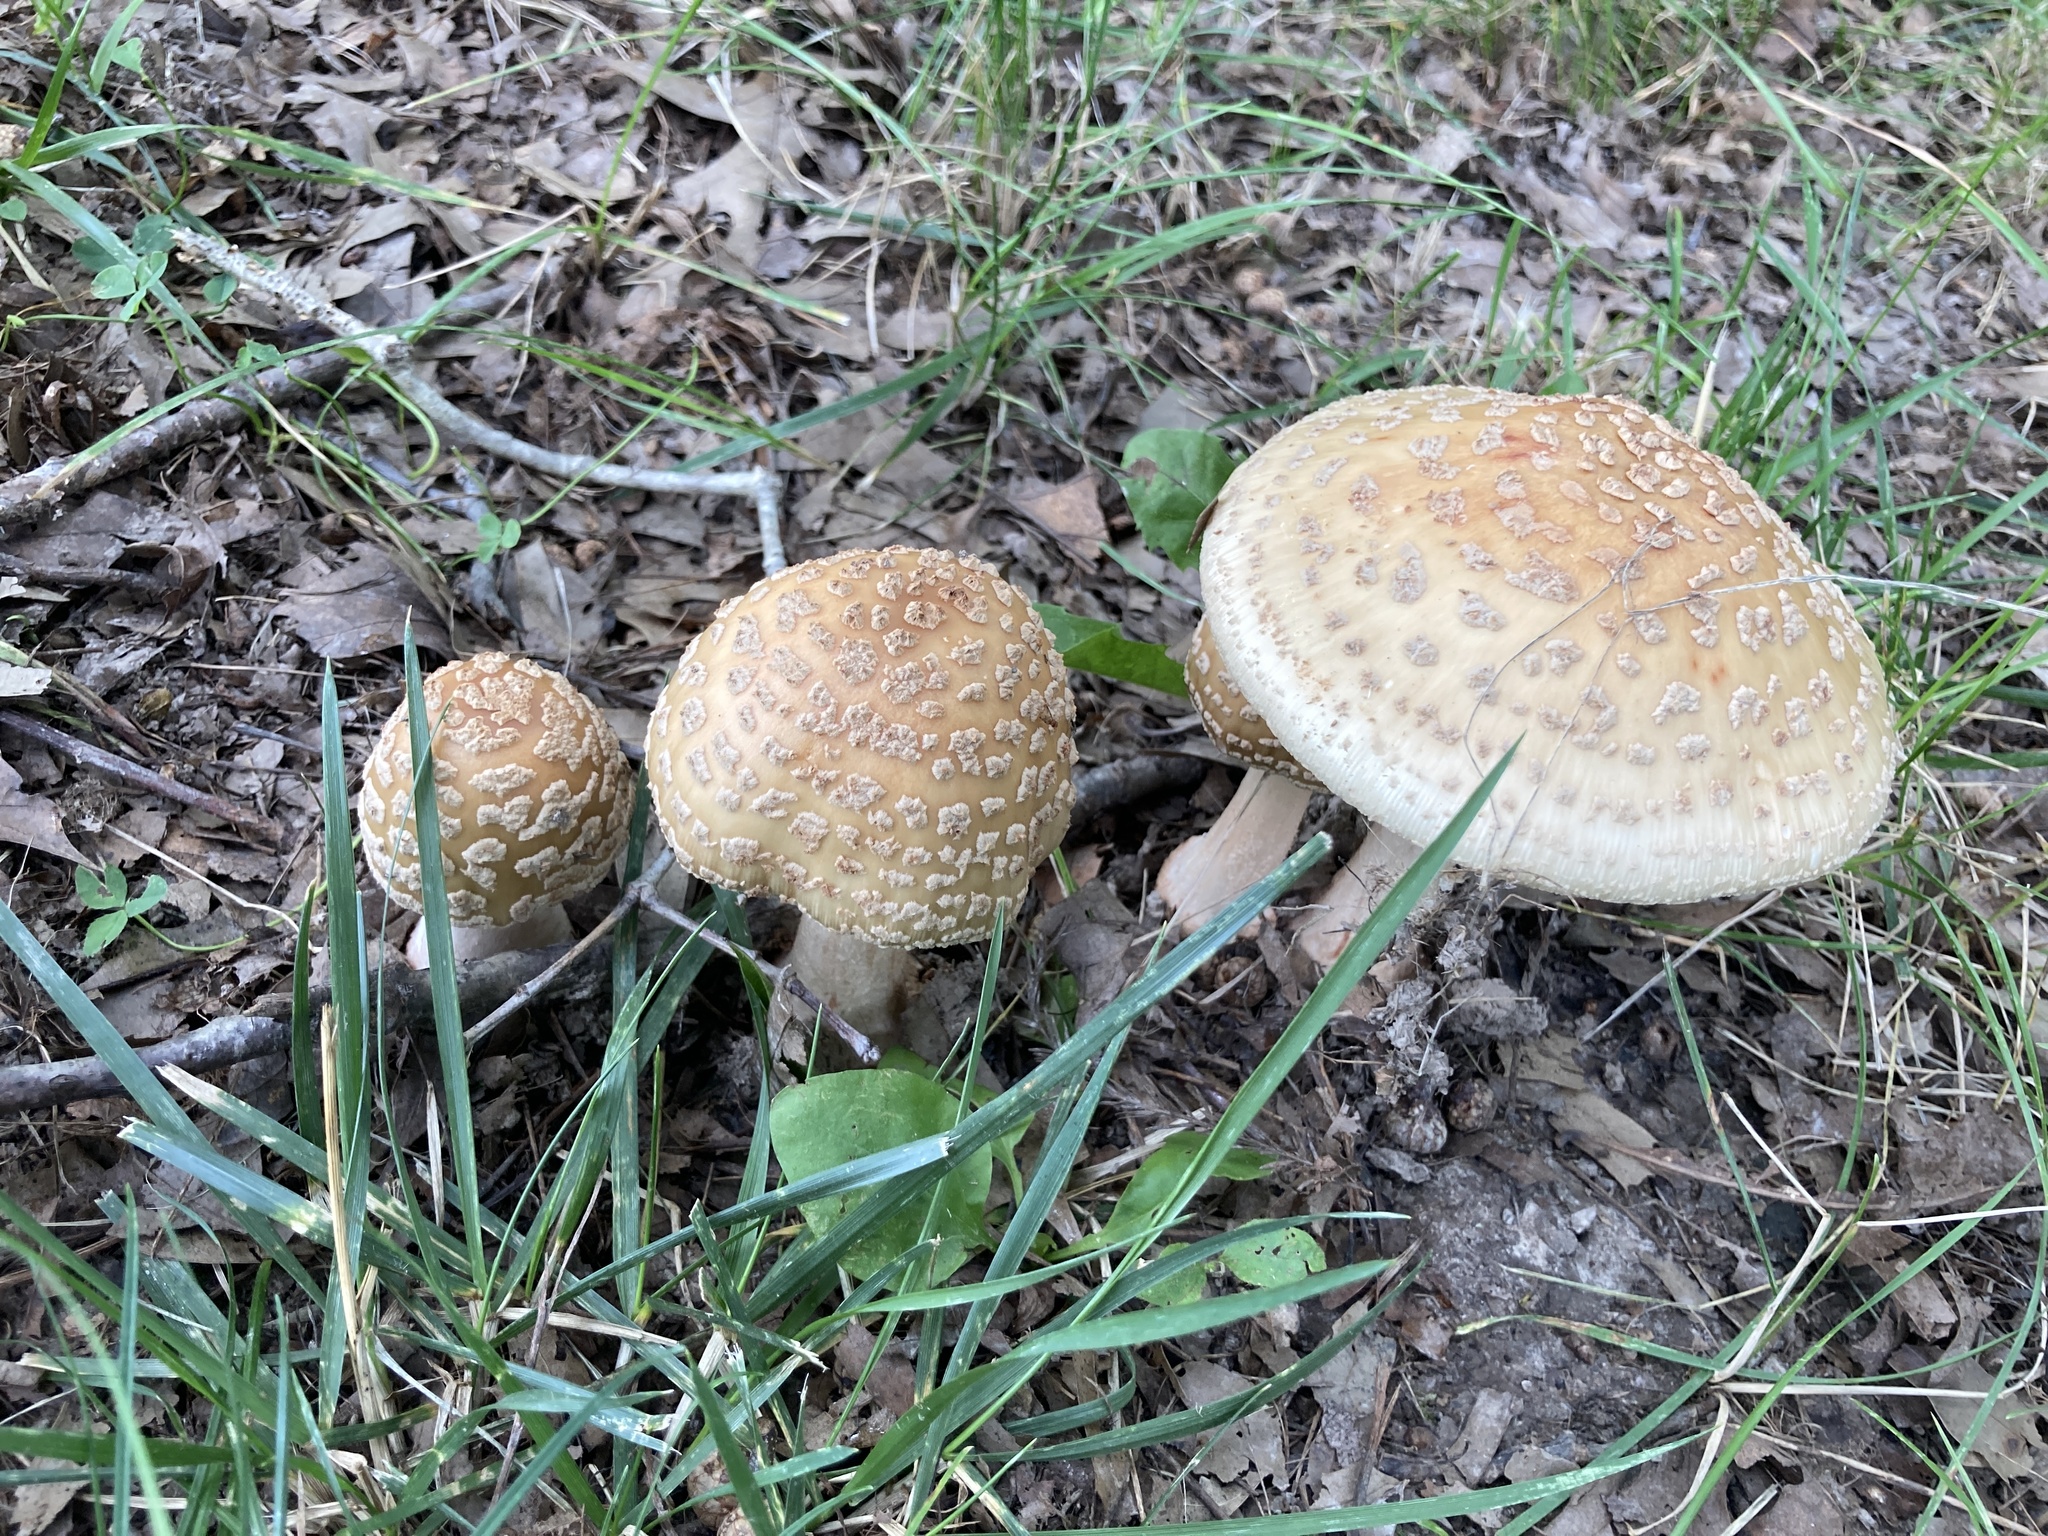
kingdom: Fungi
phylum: Basidiomycota
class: Agaricomycetes
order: Agaricales
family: Amanitaceae
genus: Amanita
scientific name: Amanita rubescens
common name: Blusher
